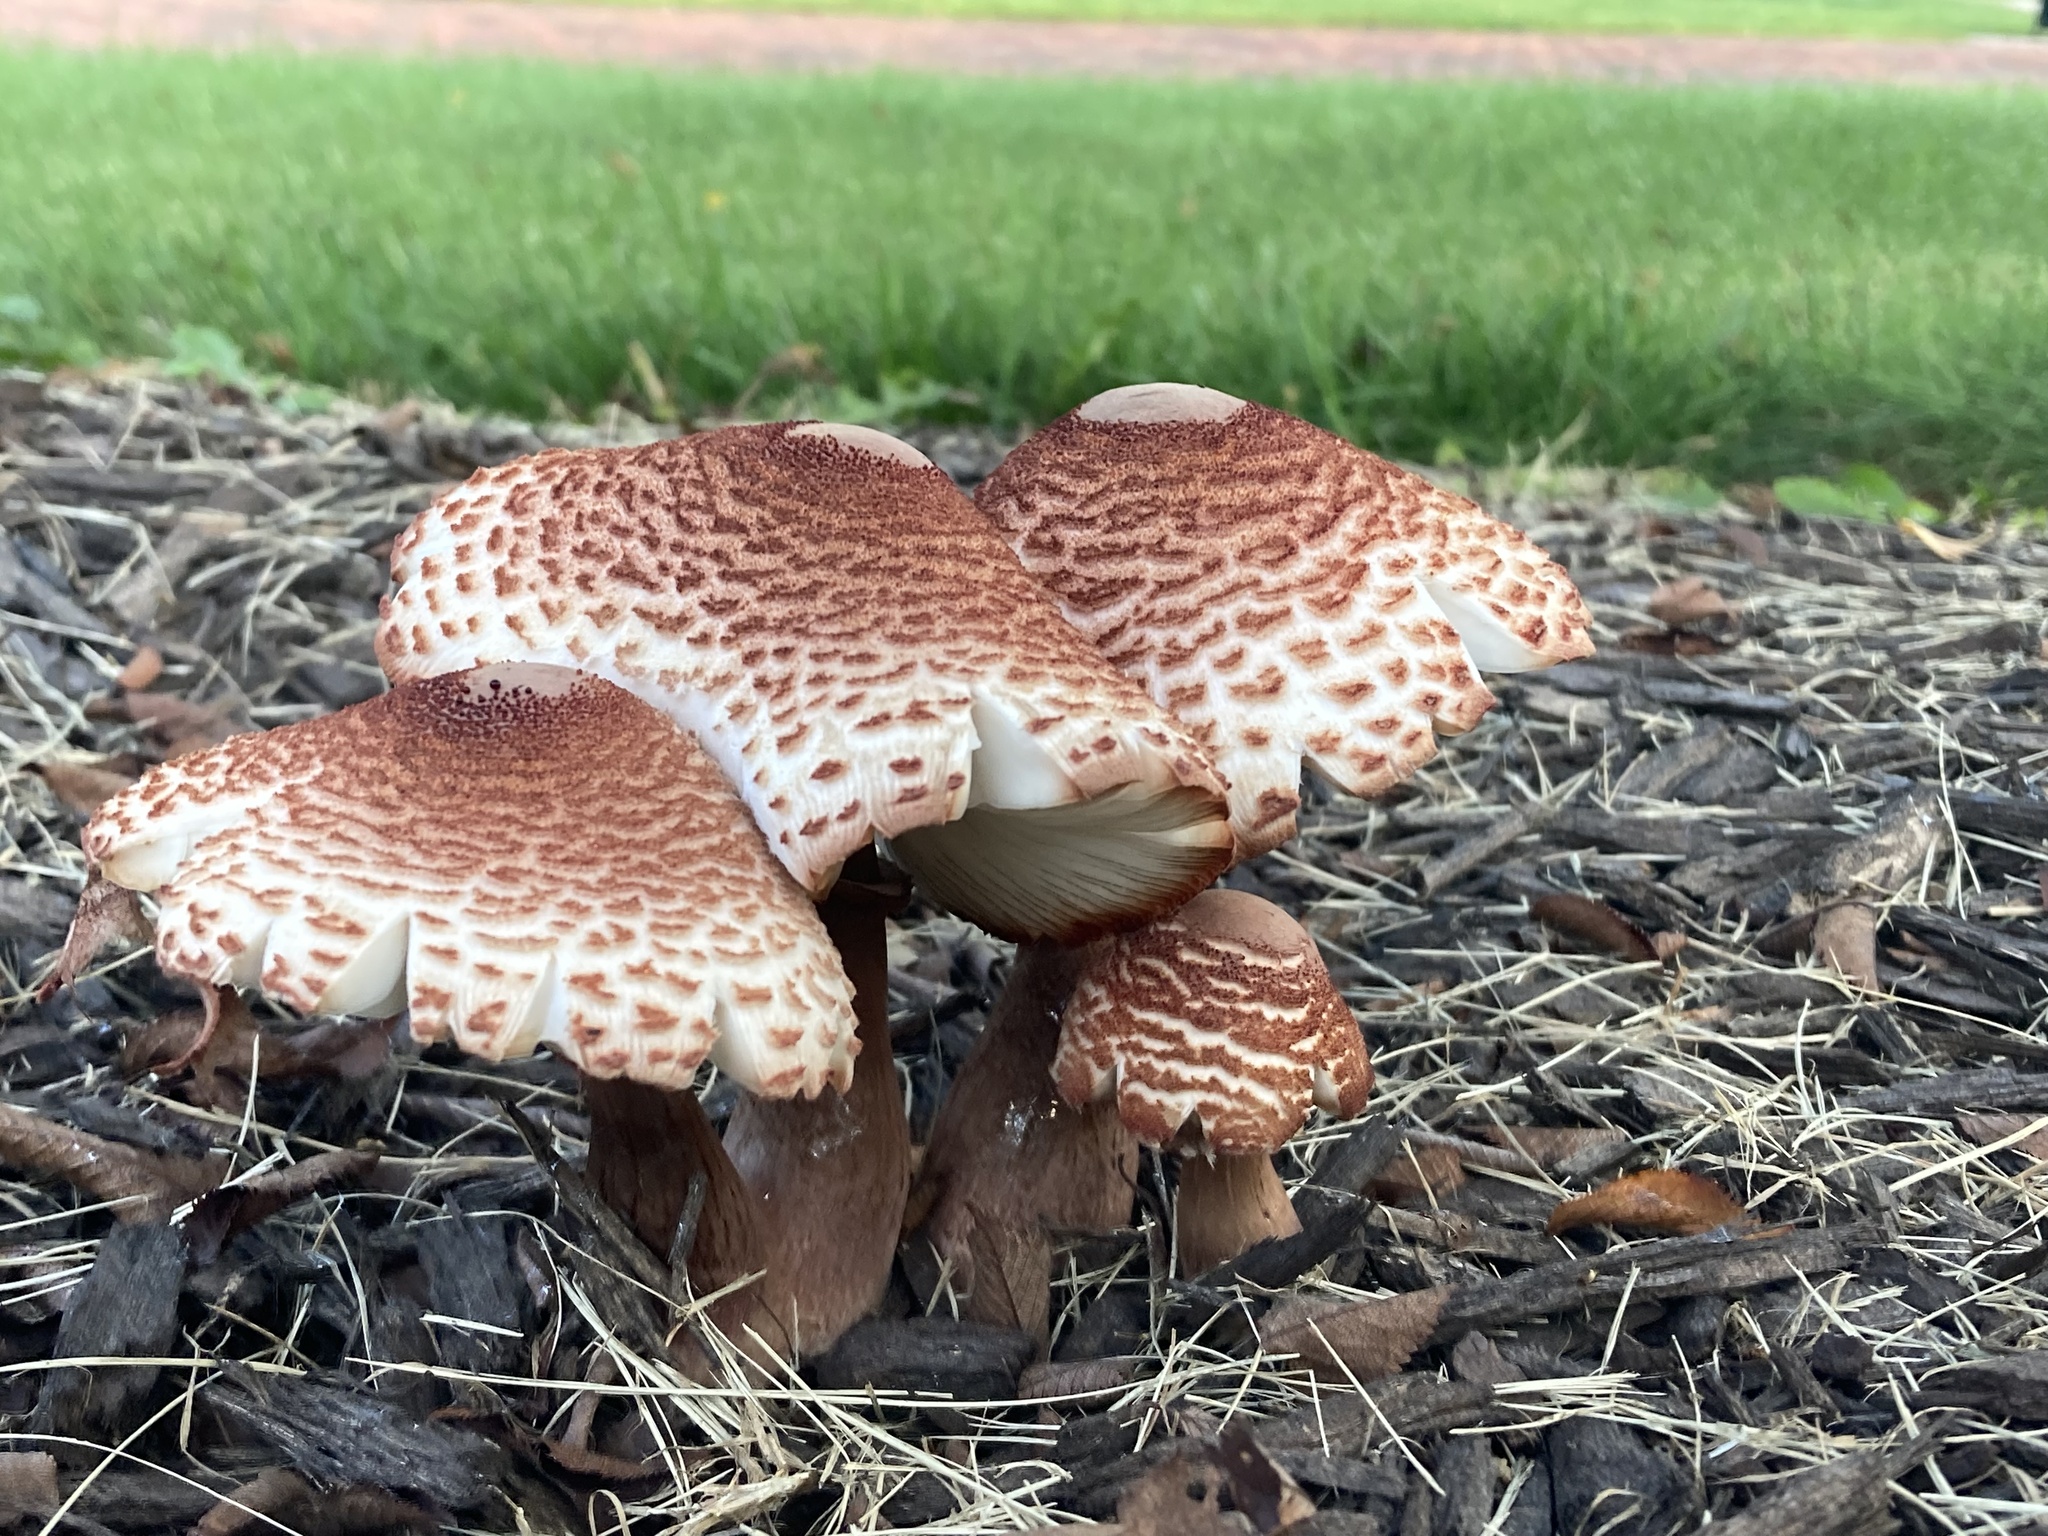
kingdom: Fungi
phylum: Basidiomycota
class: Agaricomycetes
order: Agaricales
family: Agaricaceae
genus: Leucoagaricus
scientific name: Leucoagaricus americanus
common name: Reddening lepiota
